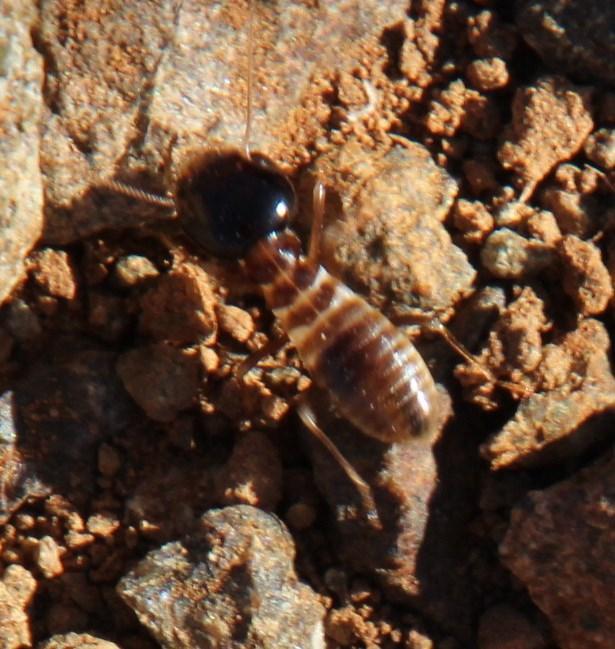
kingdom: Animalia
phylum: Arthropoda
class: Insecta
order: Blattodea
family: Hodotermitidae
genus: Hodotermes
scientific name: Hodotermes mossambicus
